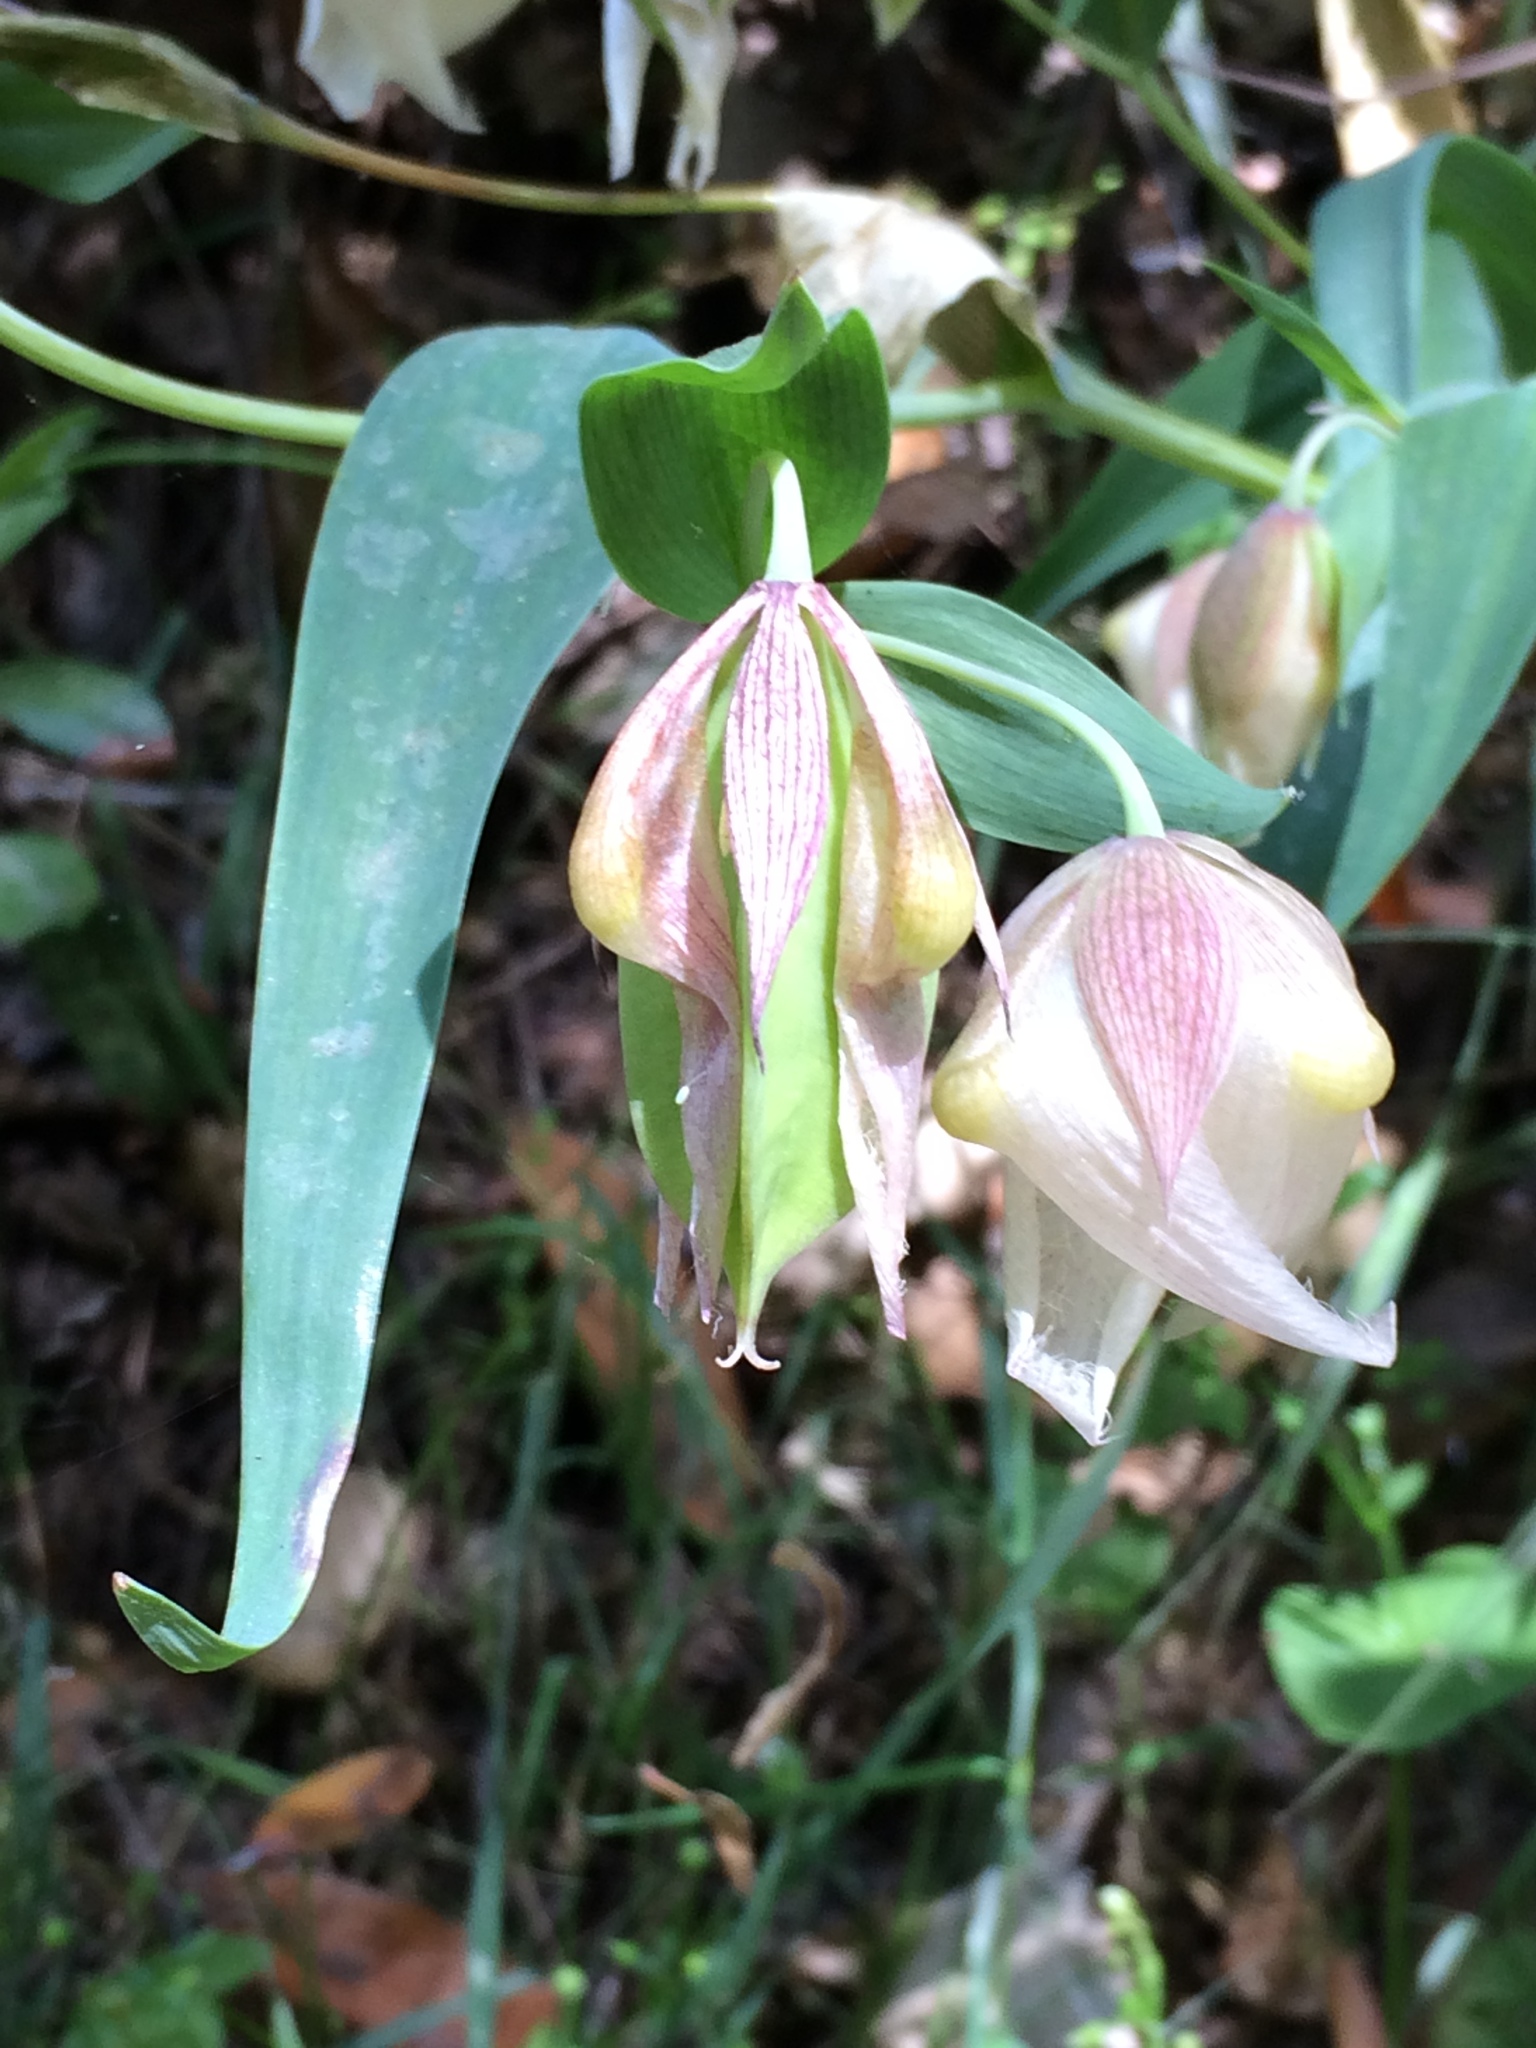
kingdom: Plantae
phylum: Tracheophyta
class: Liliopsida
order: Liliales
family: Liliaceae
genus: Calochortus
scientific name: Calochortus albus
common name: Fairy-lantern
